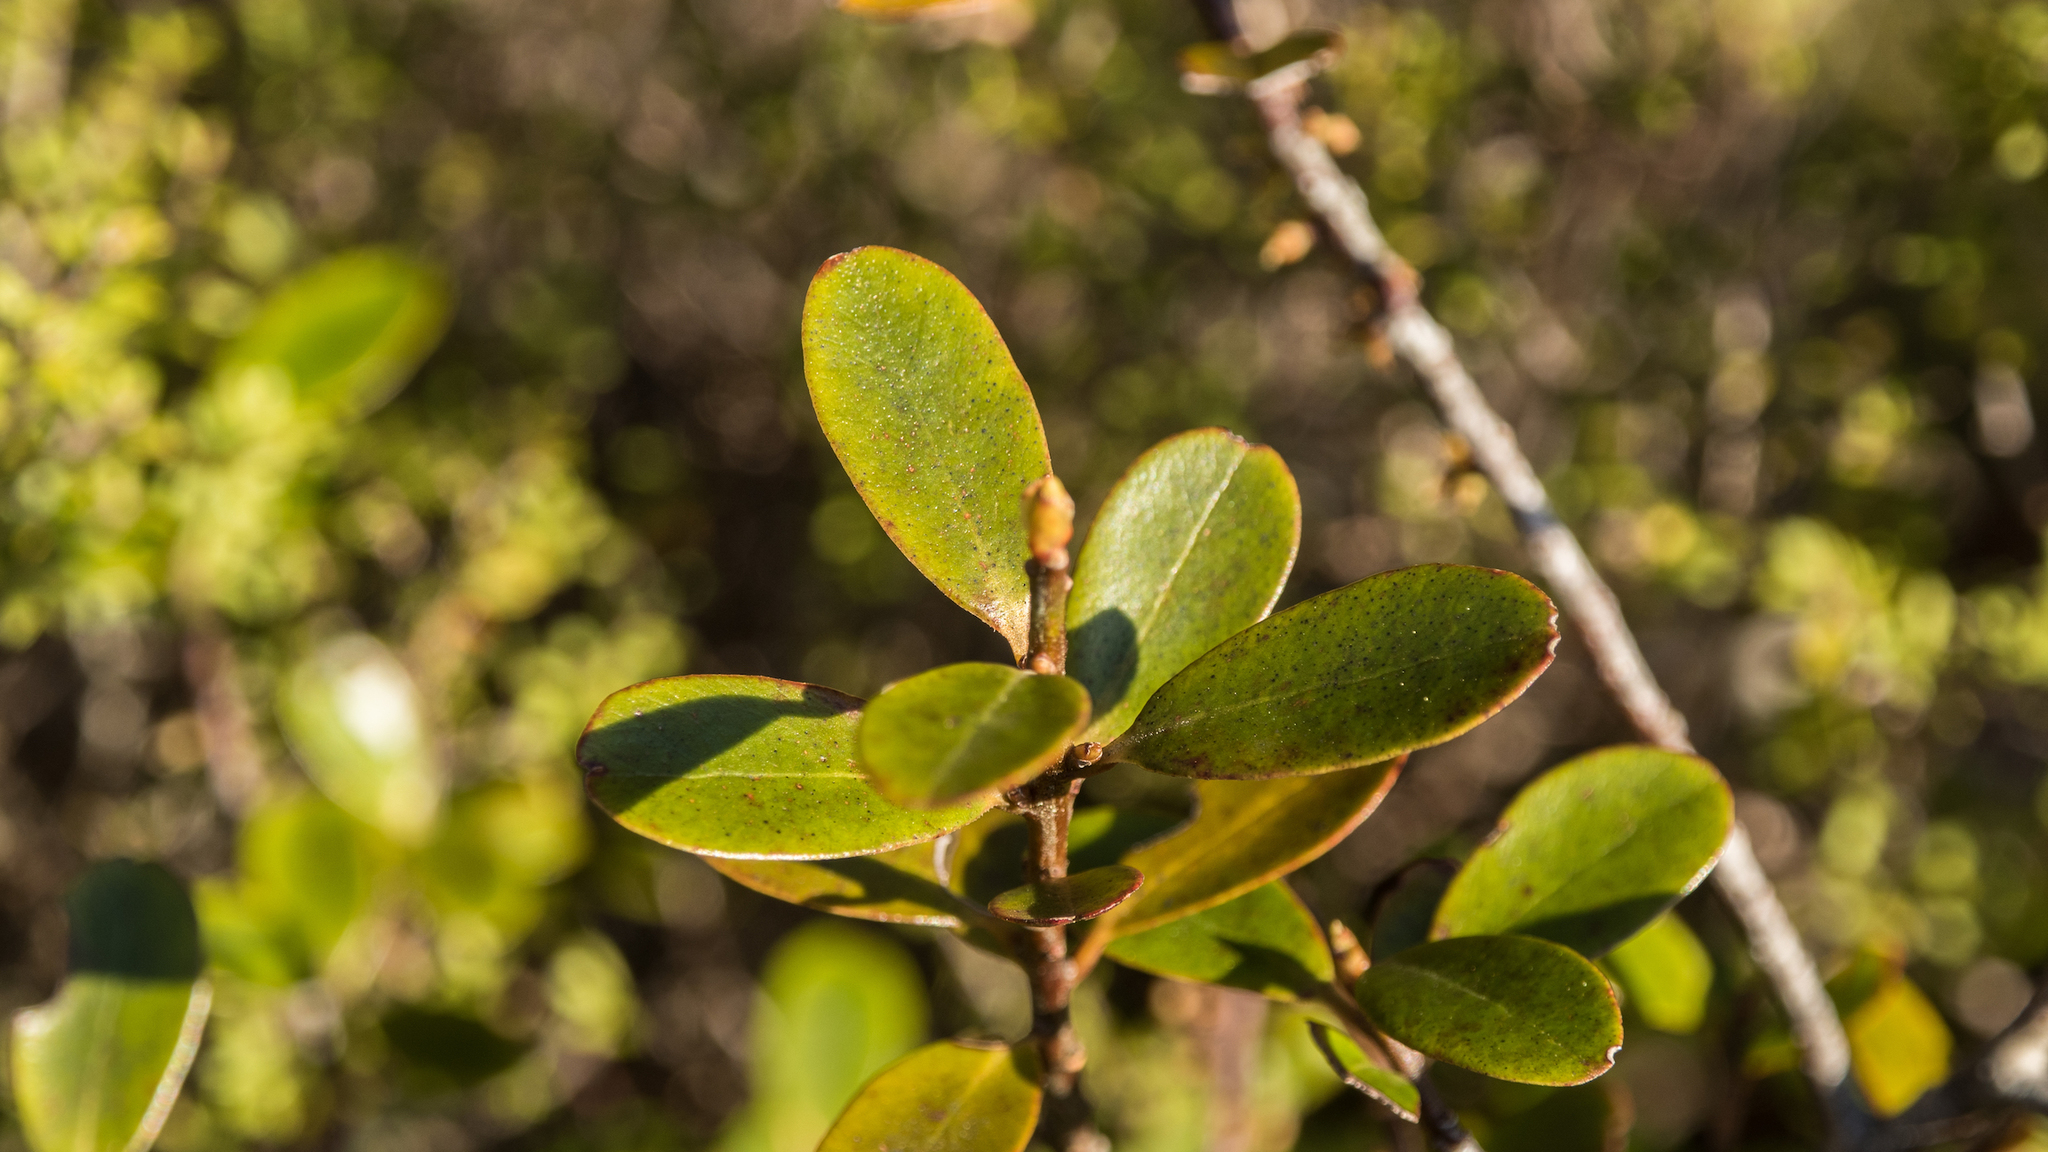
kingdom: Plantae
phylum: Tracheophyta
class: Magnoliopsida
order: Ericales
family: Primulaceae
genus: Myrsine
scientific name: Myrsine
